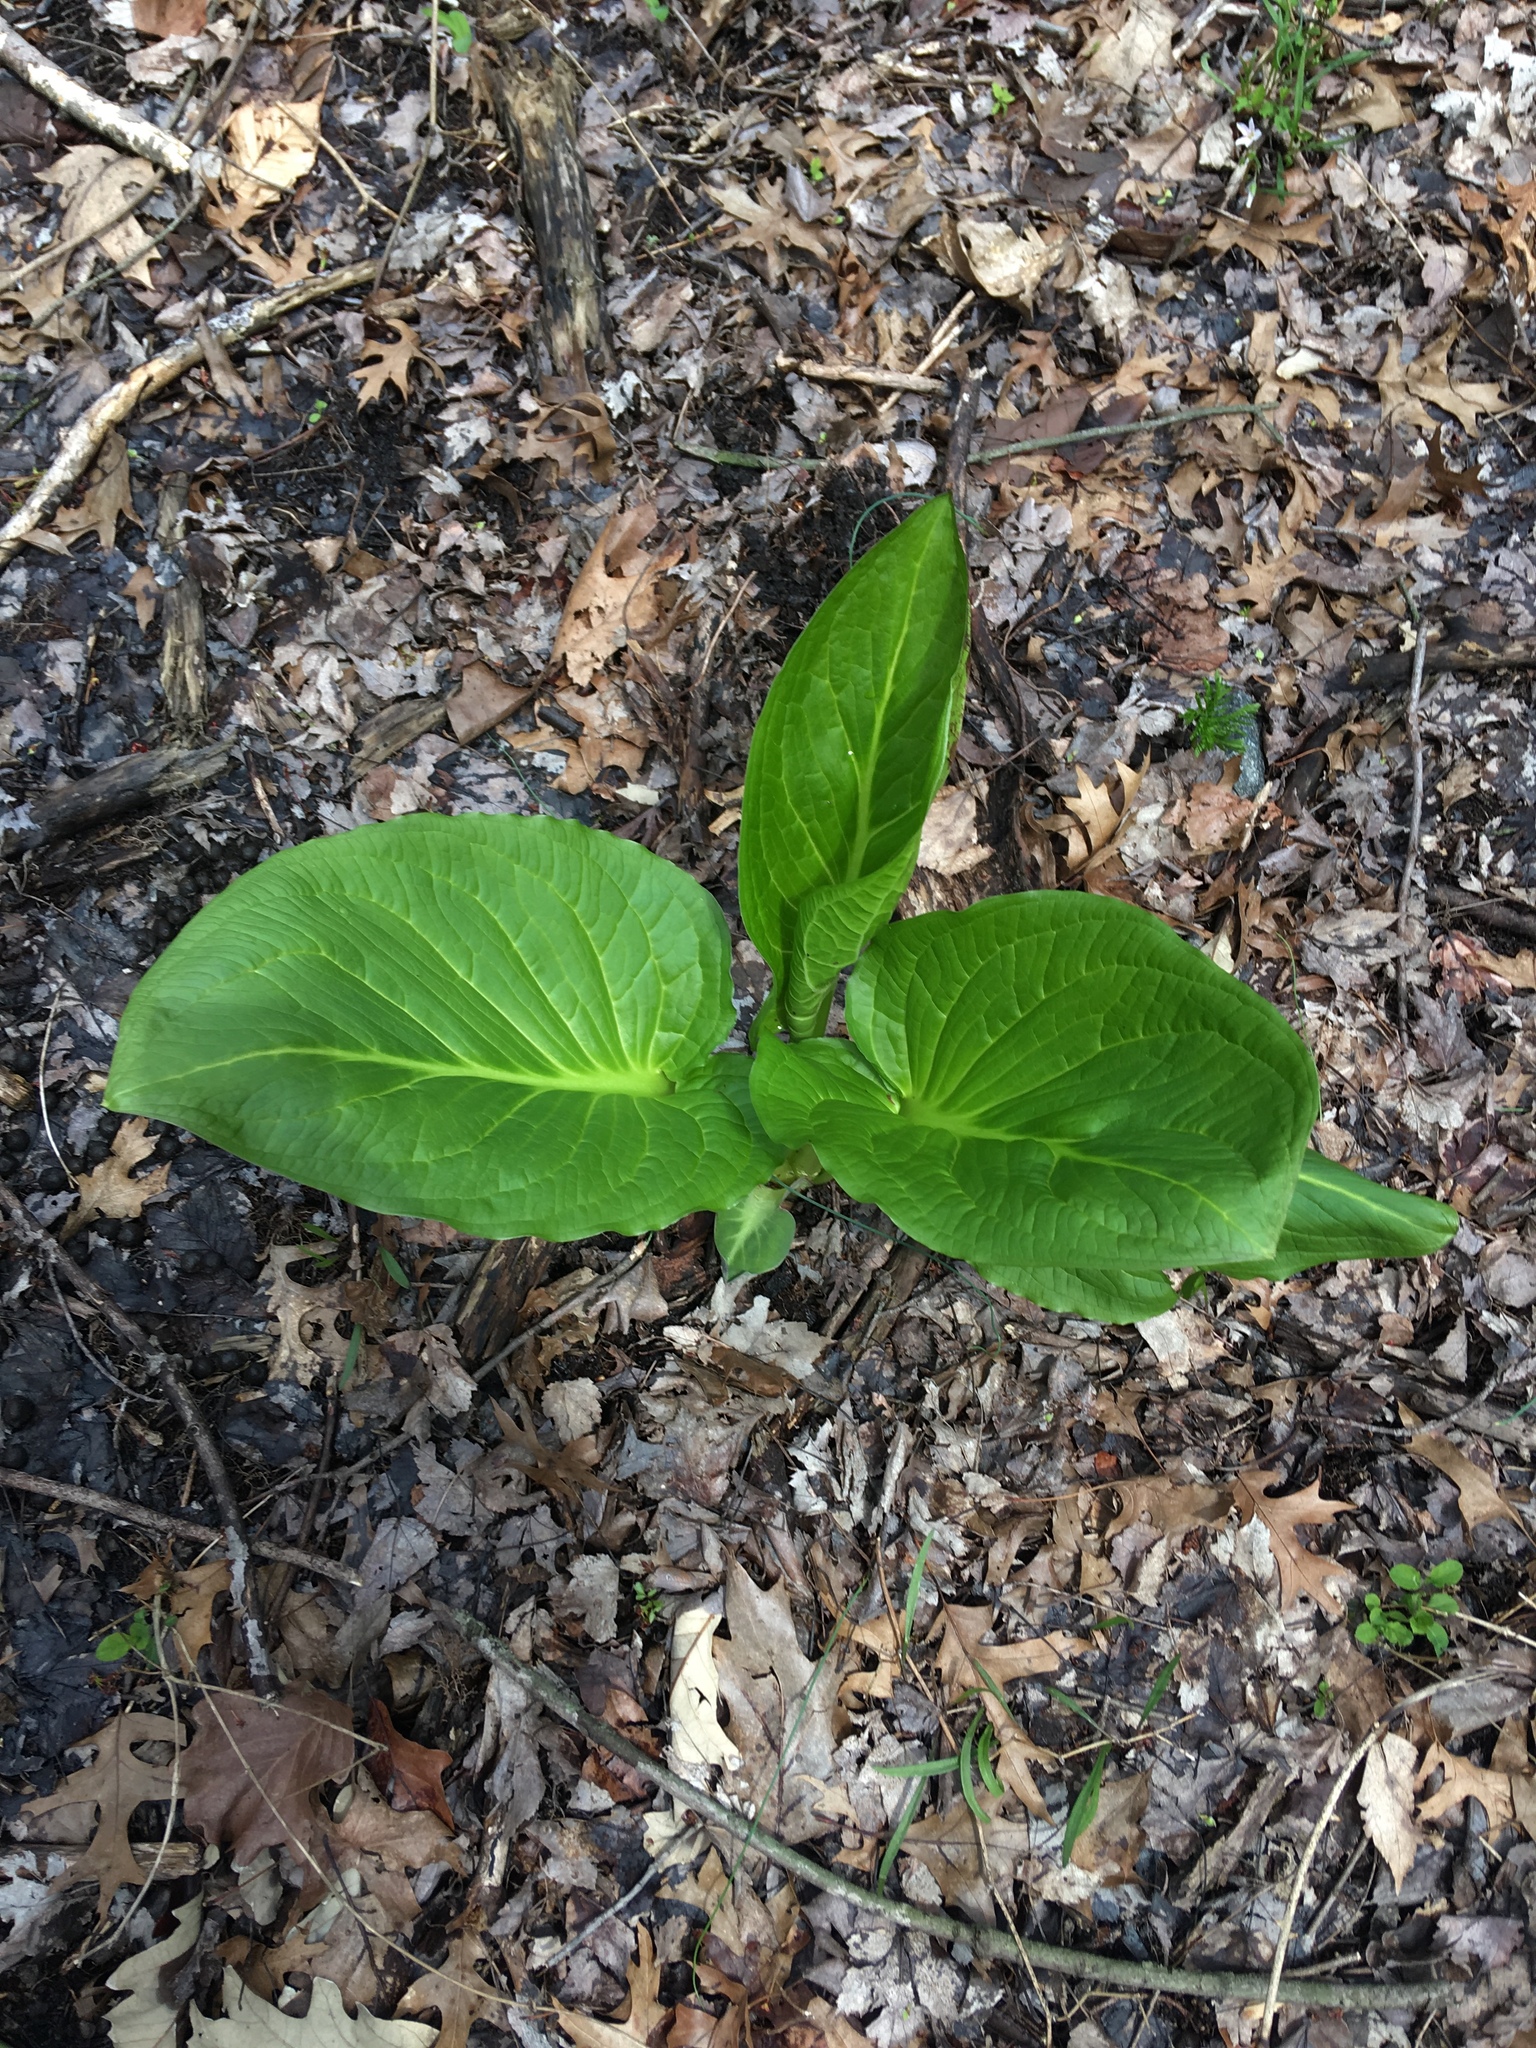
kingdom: Plantae
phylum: Tracheophyta
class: Liliopsida
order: Alismatales
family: Araceae
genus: Symplocarpus
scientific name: Symplocarpus foetidus
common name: Eastern skunk cabbage
